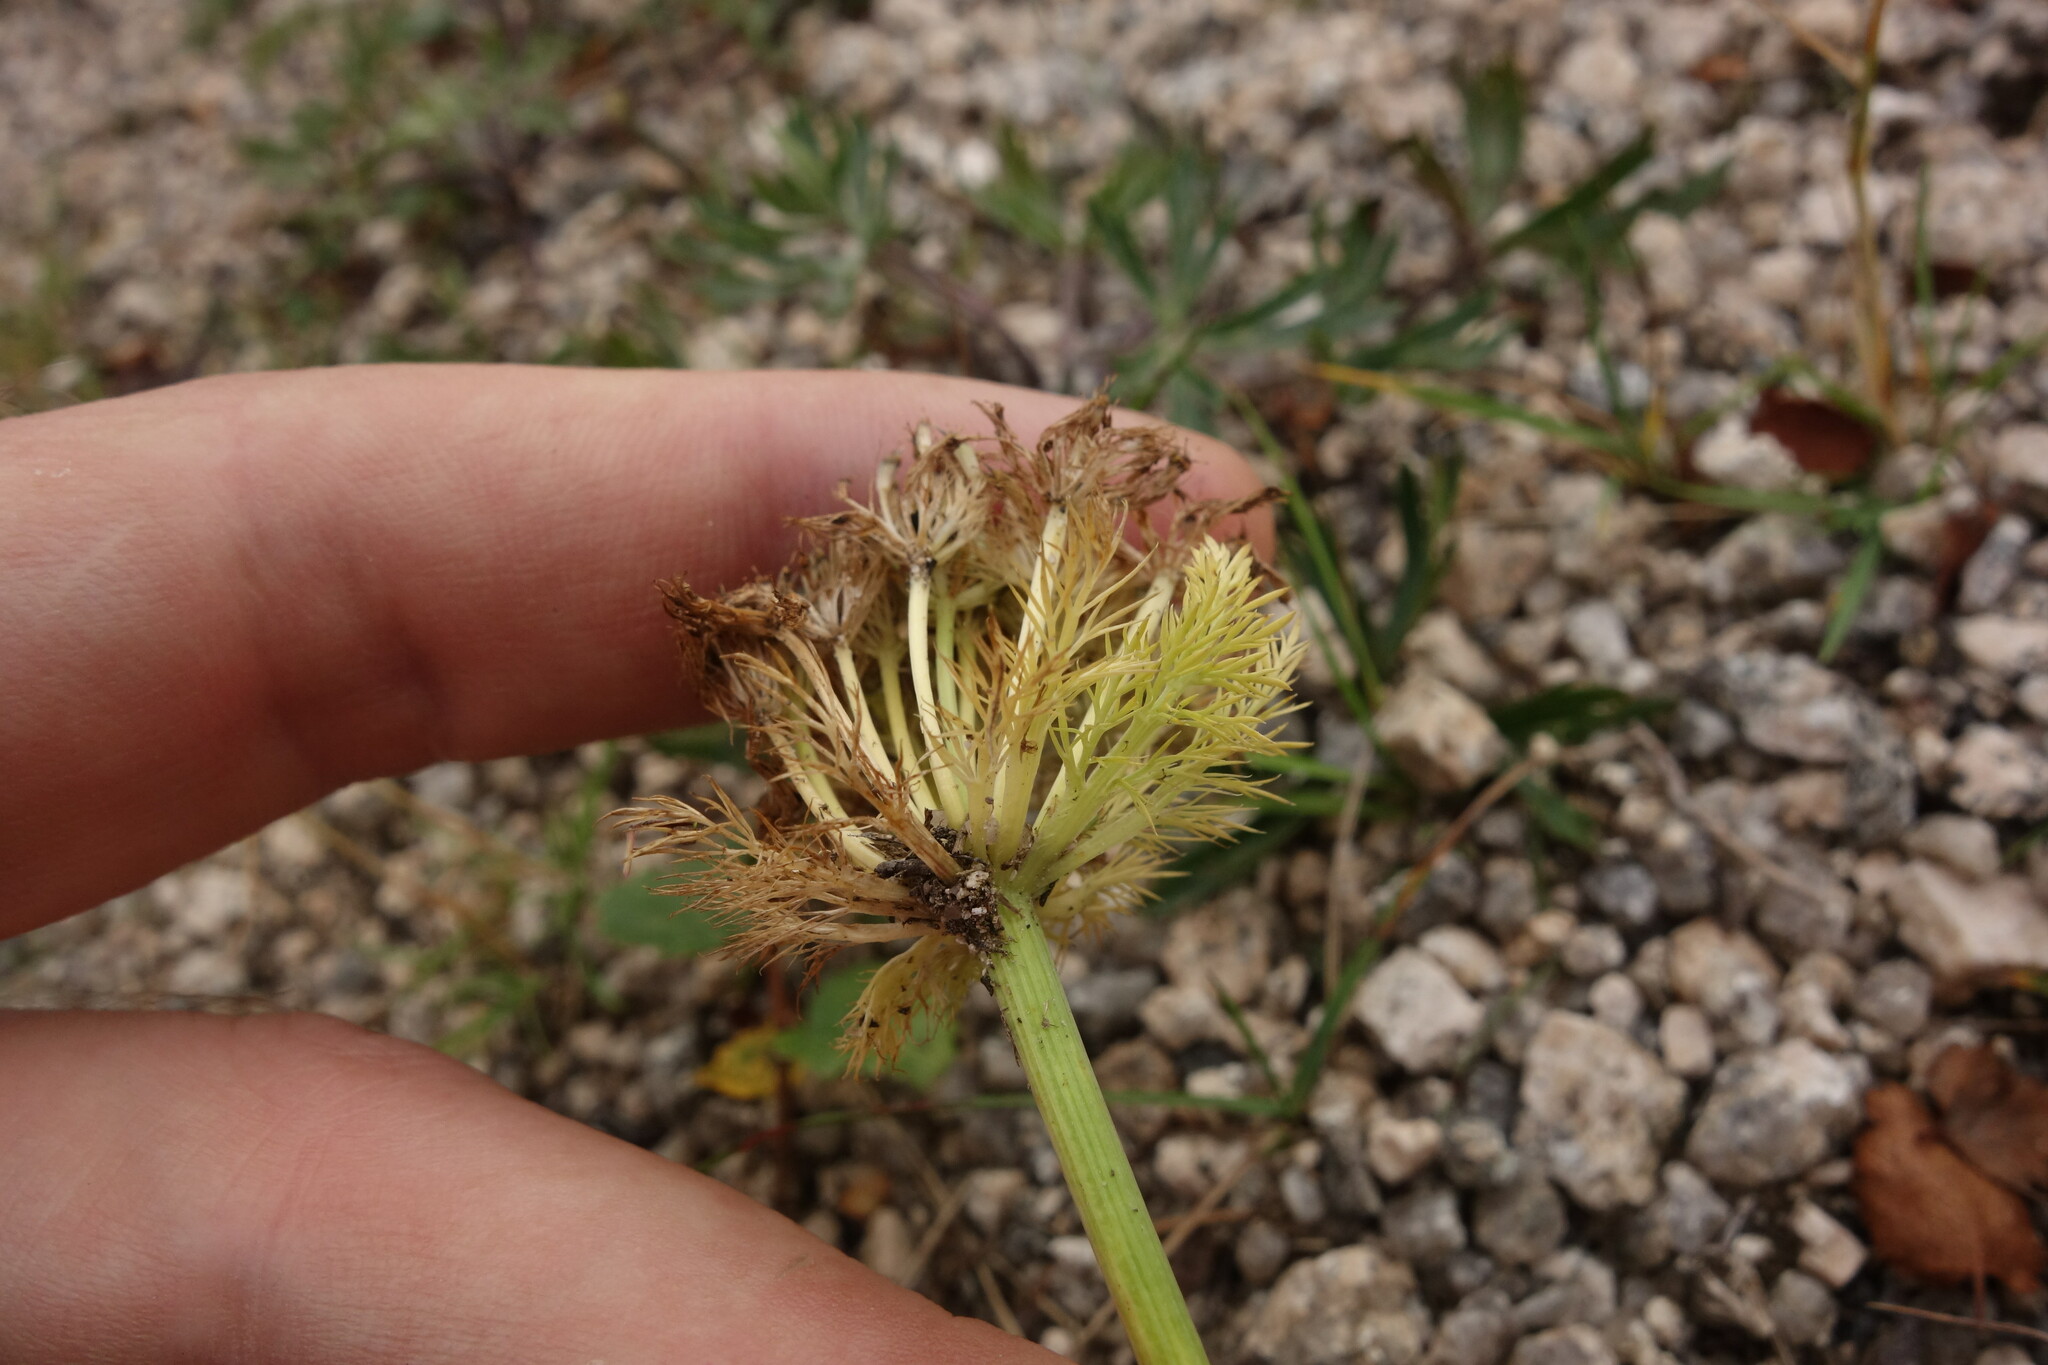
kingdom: Plantae
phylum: Tracheophyta
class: Magnoliopsida
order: Apiales
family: Apiaceae
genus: Schulzia
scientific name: Schulzia crinita
